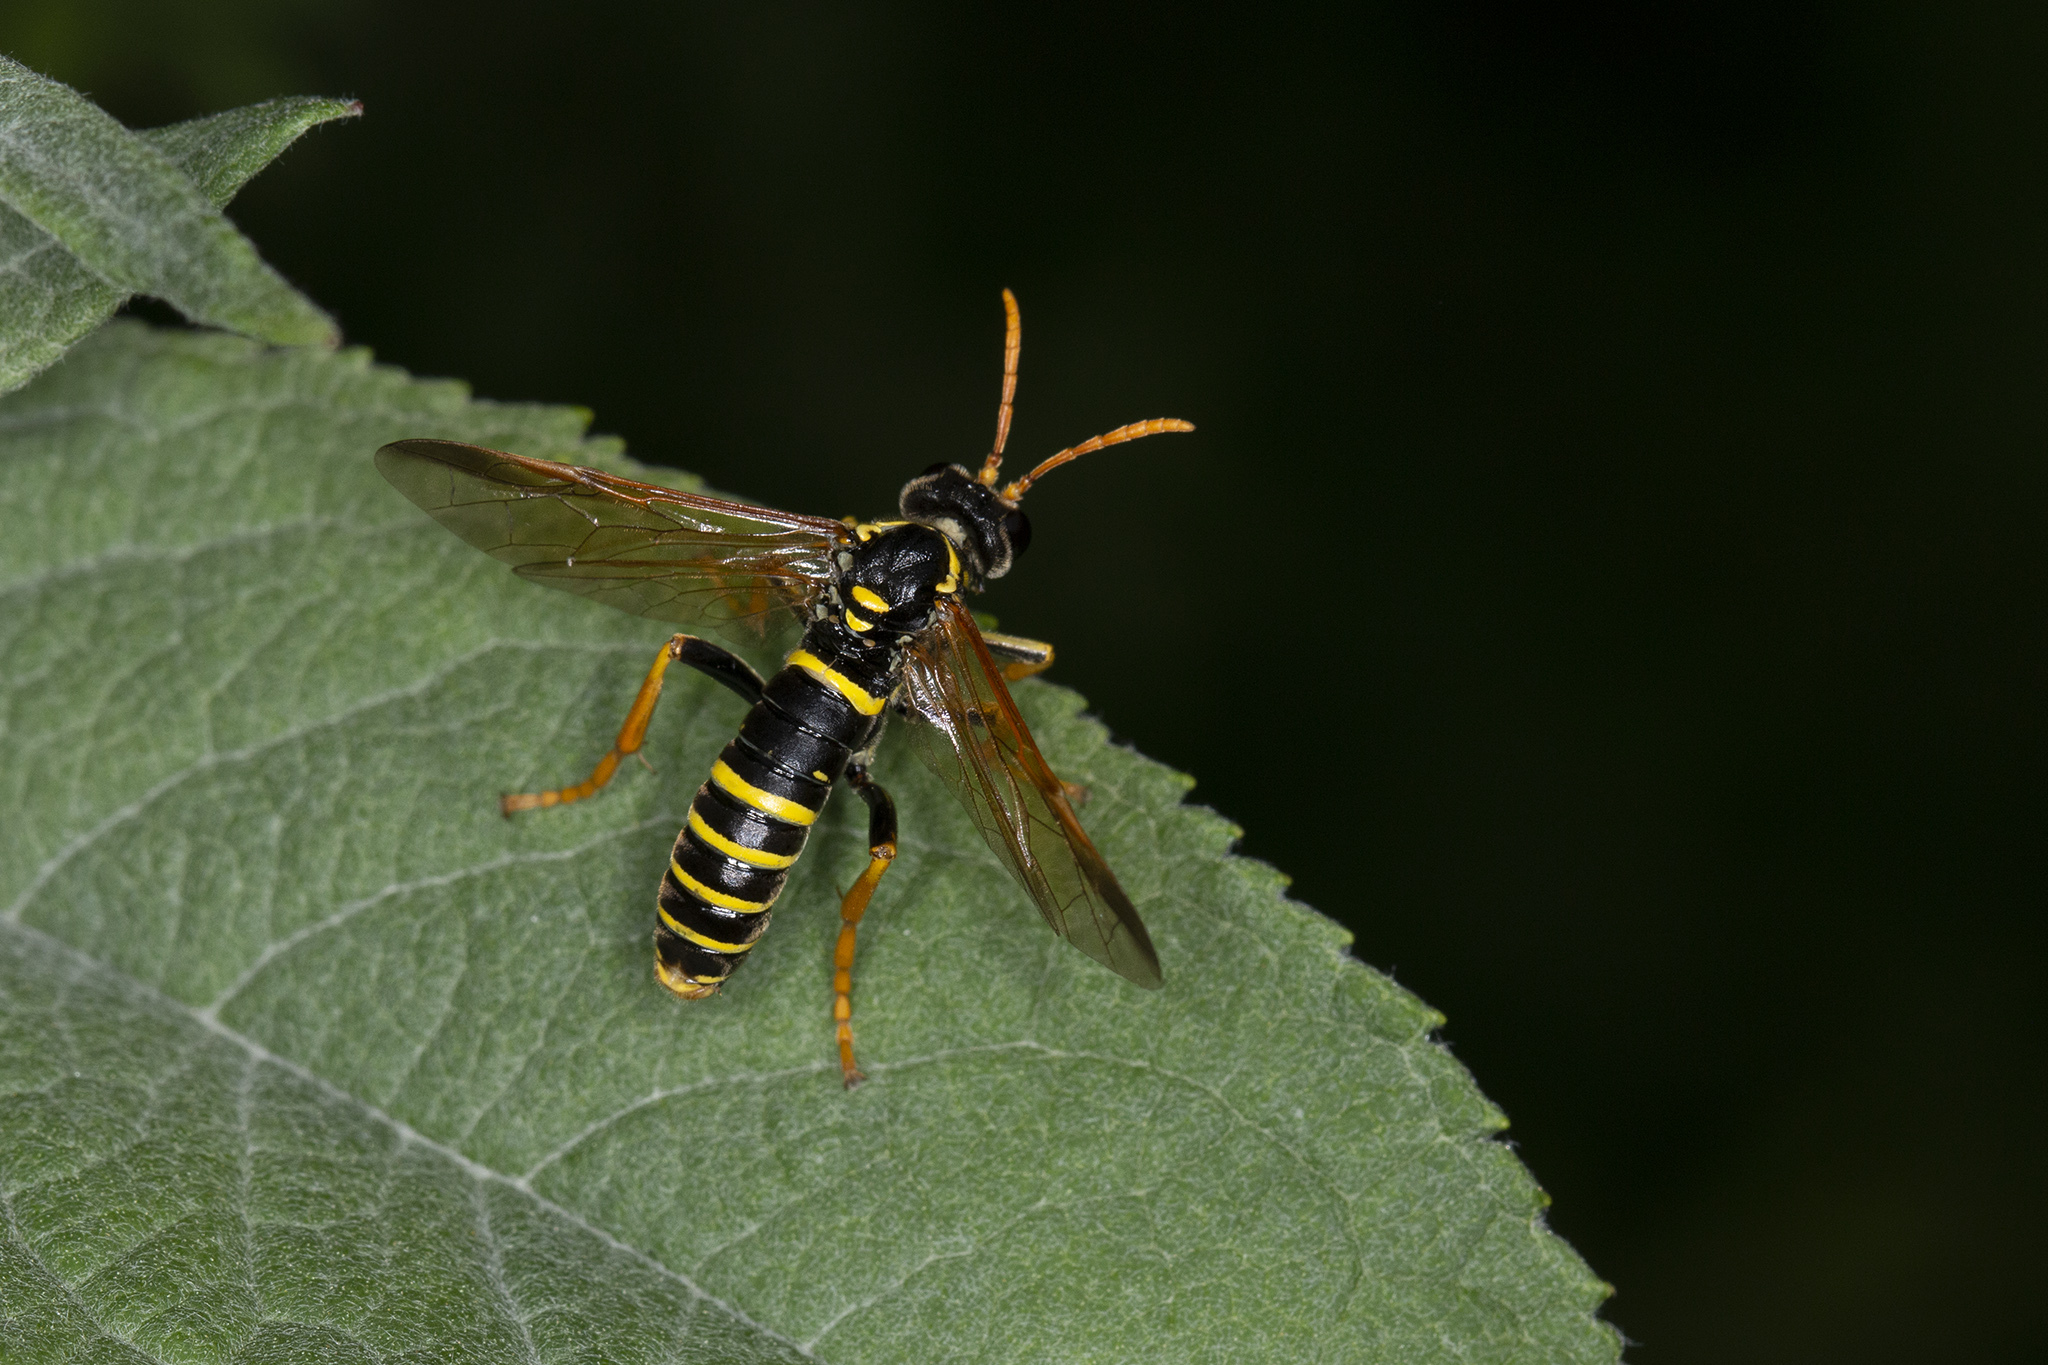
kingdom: Animalia
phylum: Arthropoda
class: Insecta
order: Hymenoptera
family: Tenthredinidae
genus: Tenthredo
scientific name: Tenthredo scrophulariae
